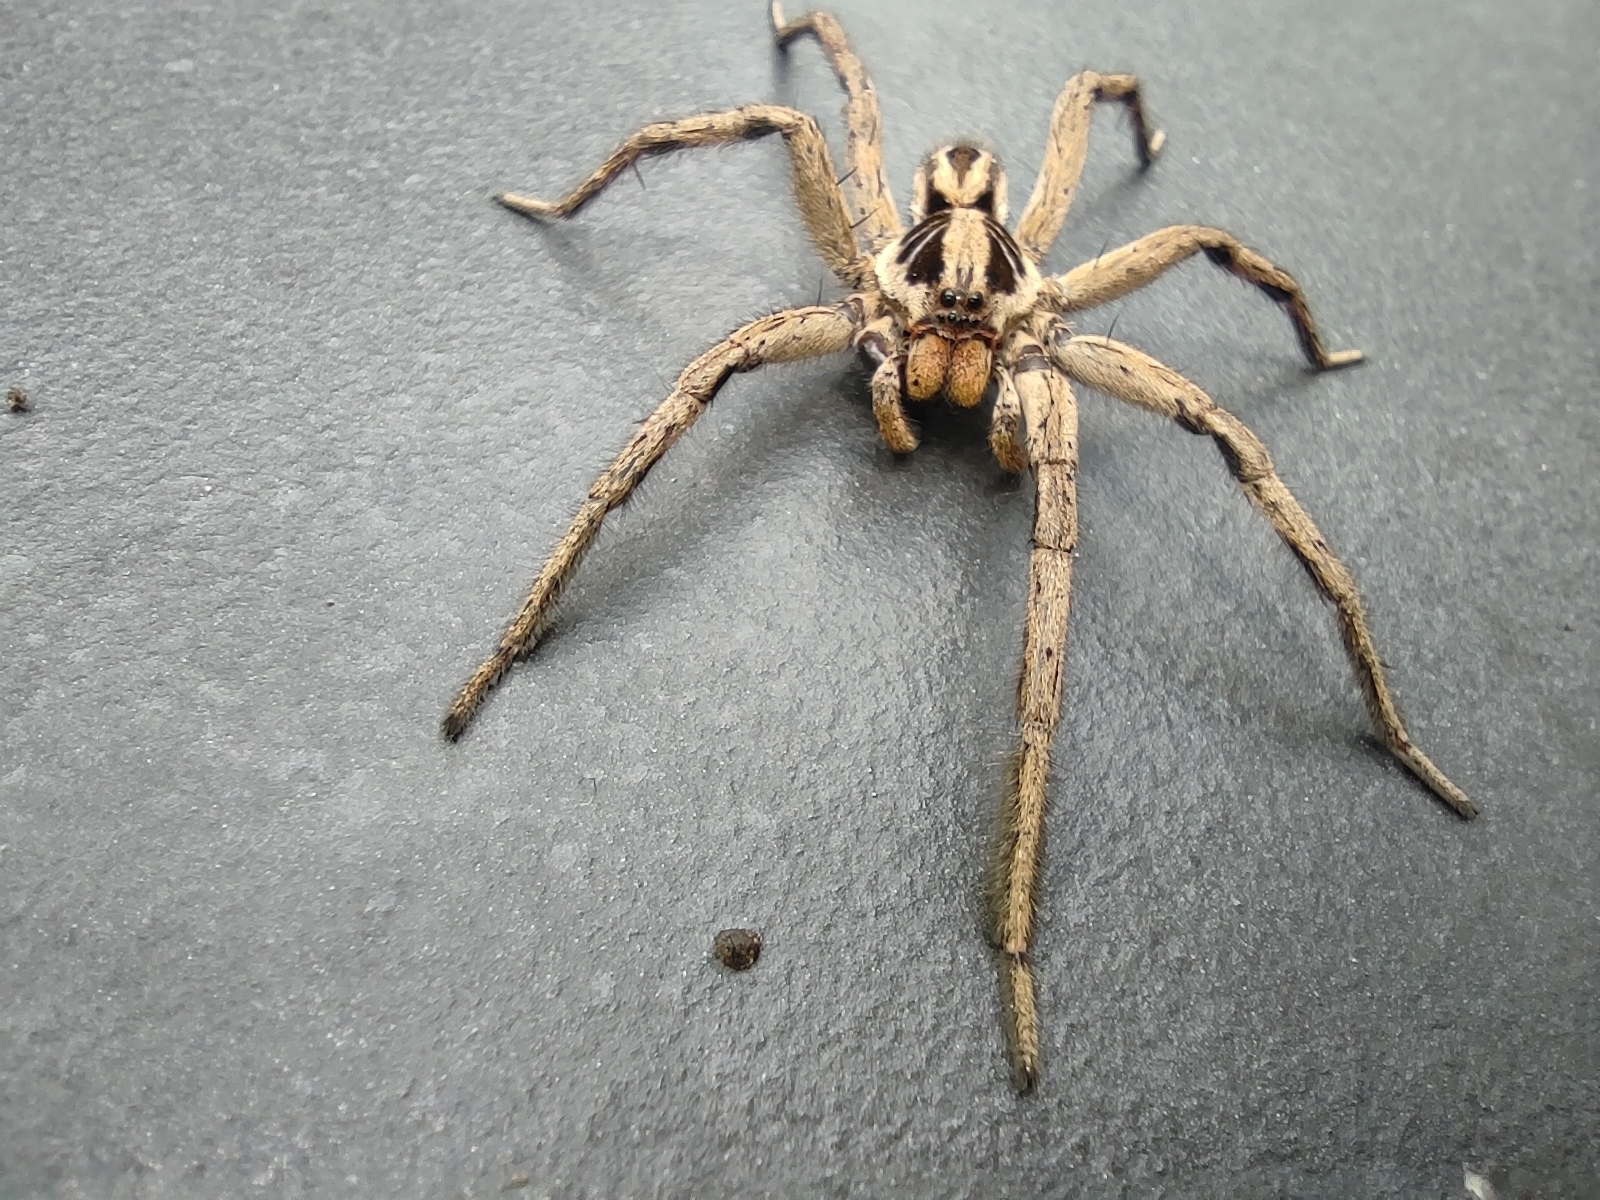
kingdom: Animalia
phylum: Arthropoda
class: Arachnida
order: Araneae
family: Lycosidae
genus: Lycosa
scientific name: Lycosa erythrognatha
